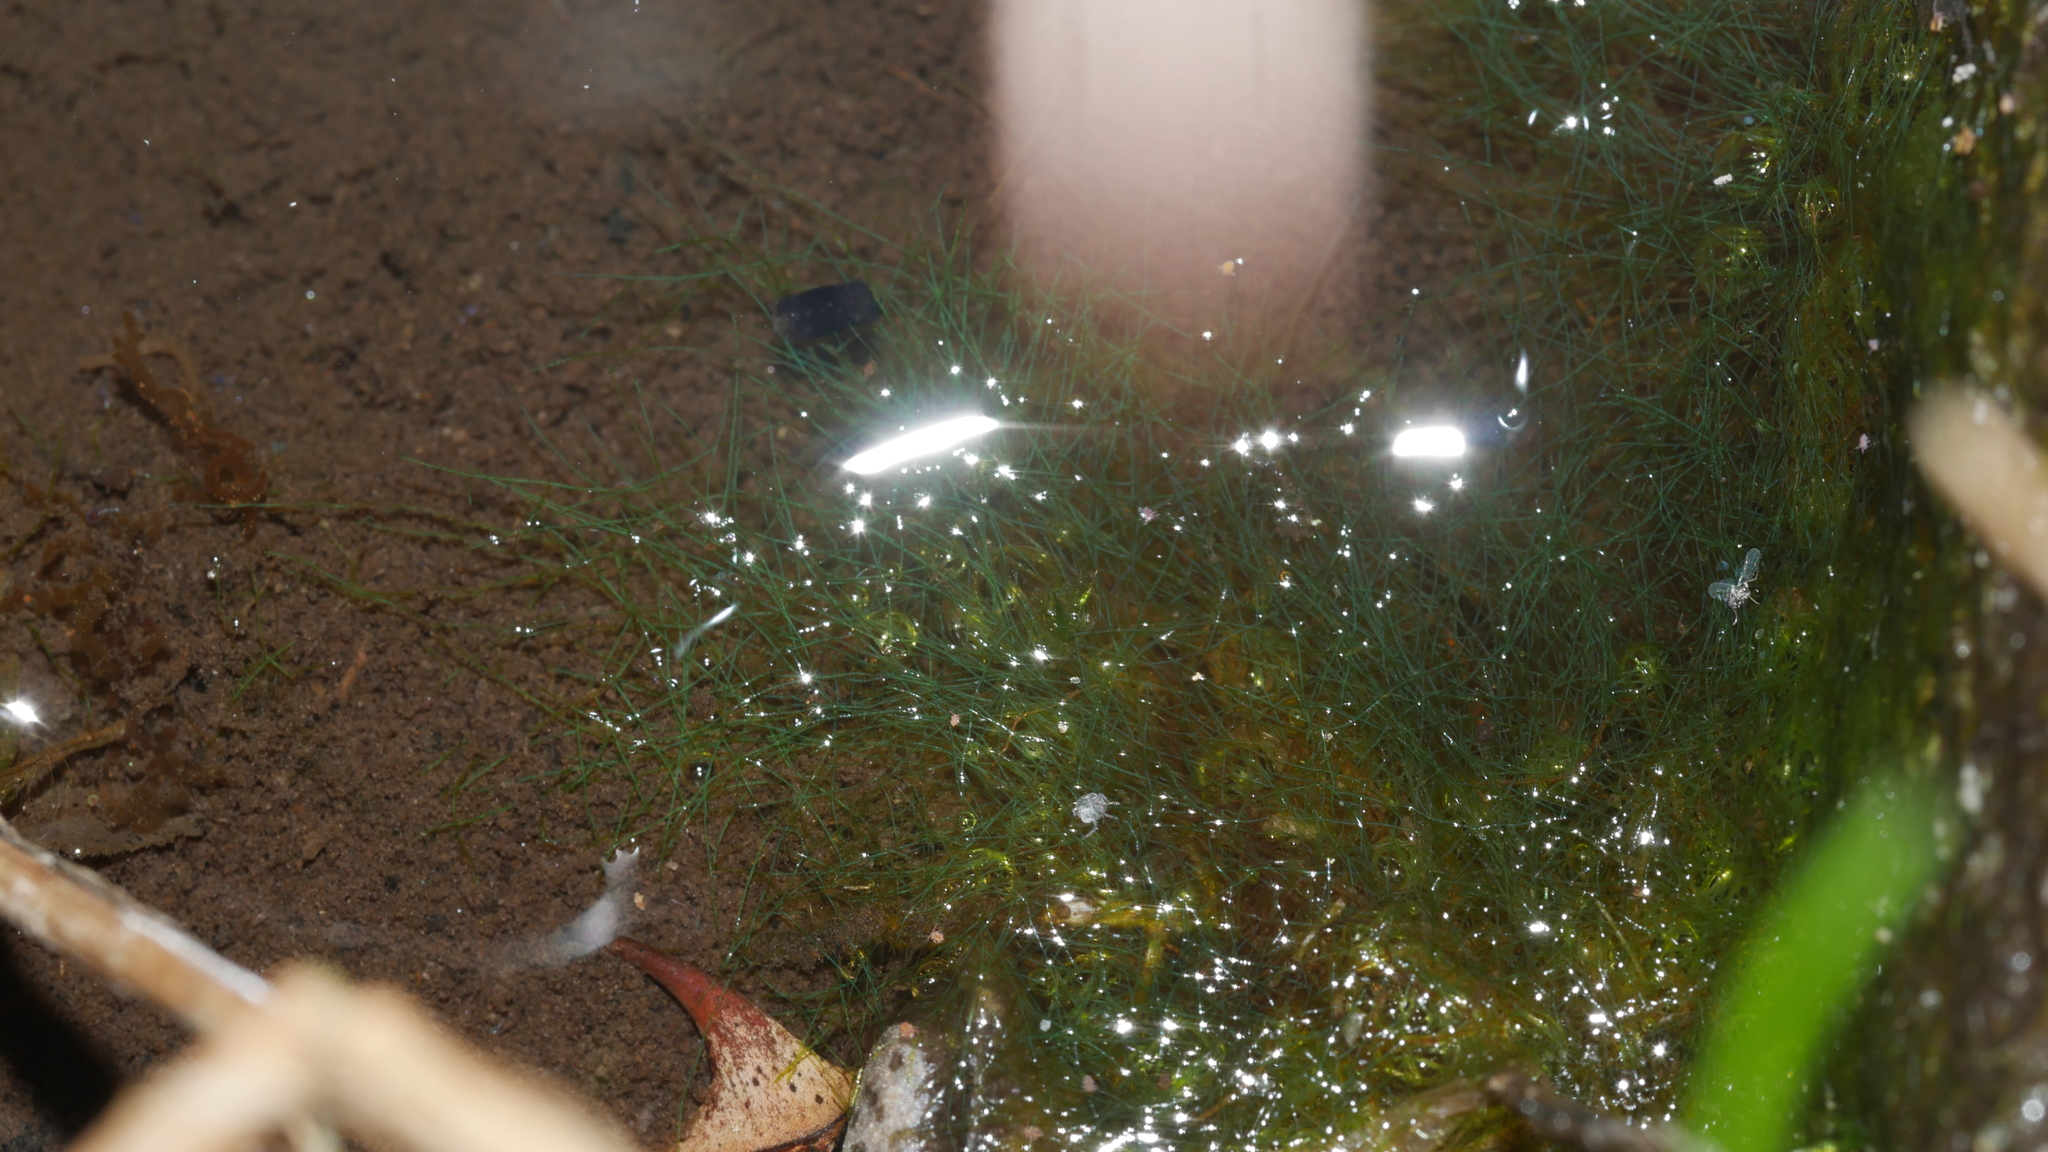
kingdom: Chromista
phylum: Ochrophyta
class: Xanthophyceae
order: Vaucheriales
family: Vaucheriaceae
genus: Vaucheria
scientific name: Vaucheria
